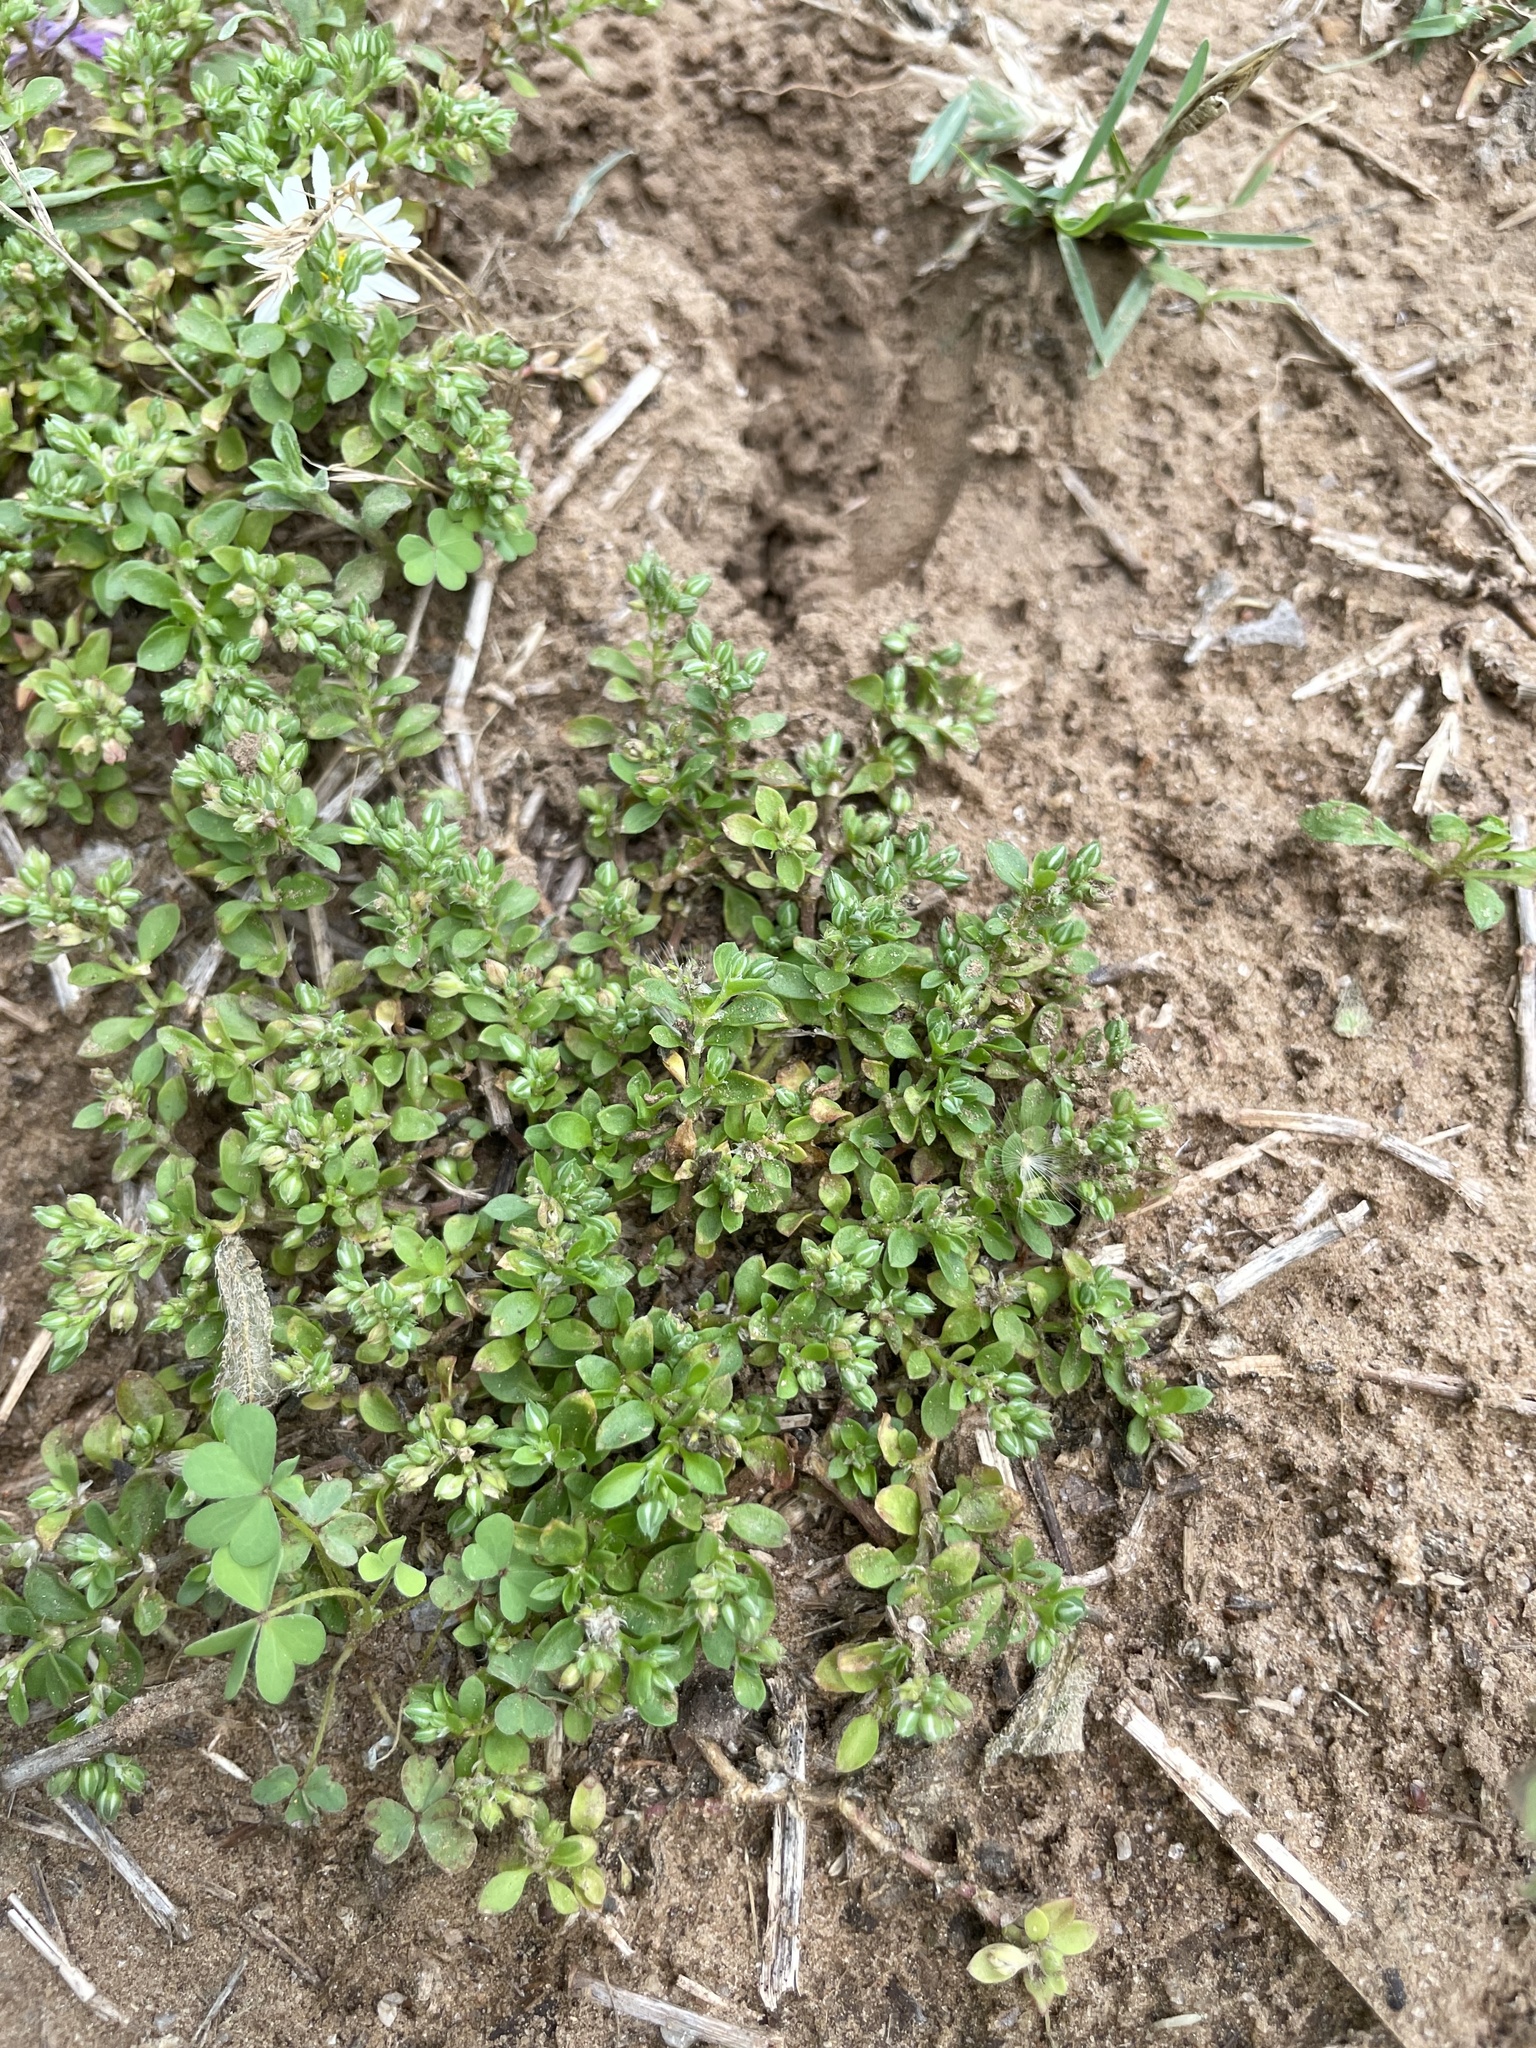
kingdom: Plantae
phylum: Tracheophyta
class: Magnoliopsida
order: Caryophyllales
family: Caryophyllaceae
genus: Polycarpon
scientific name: Polycarpon tetraphyllum
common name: Four-leaved all-seed
